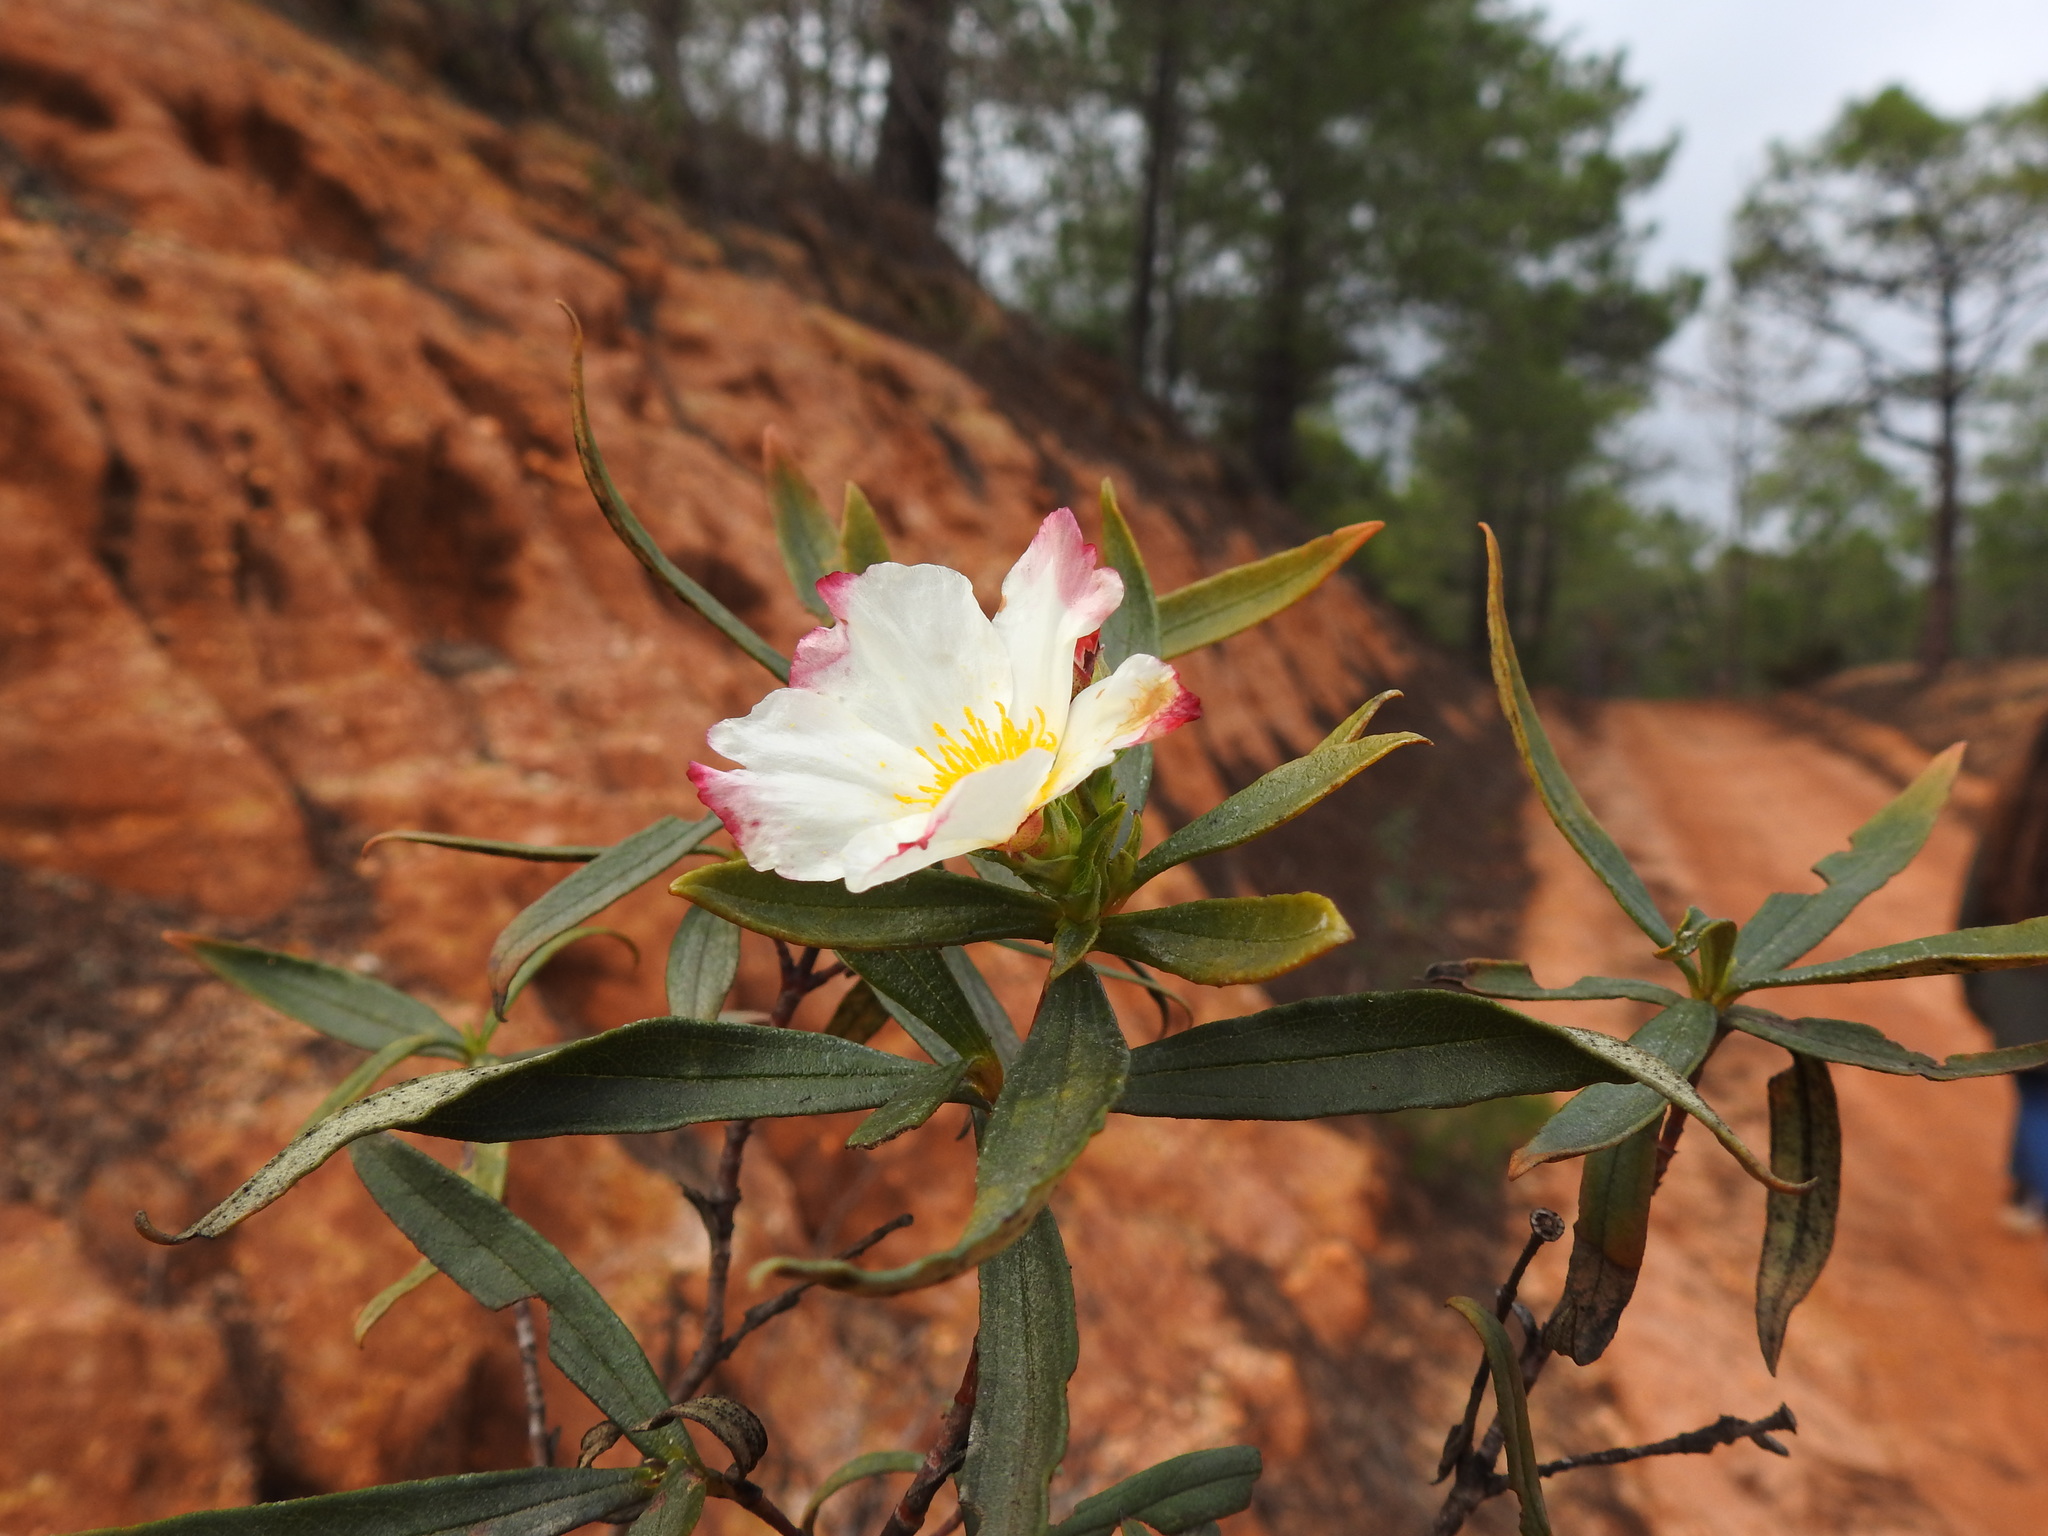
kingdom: Plantae
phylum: Tracheophyta
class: Magnoliopsida
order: Malvales
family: Cistaceae
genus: Cistus
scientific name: Cistus ladanifer
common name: Common gum cistus
